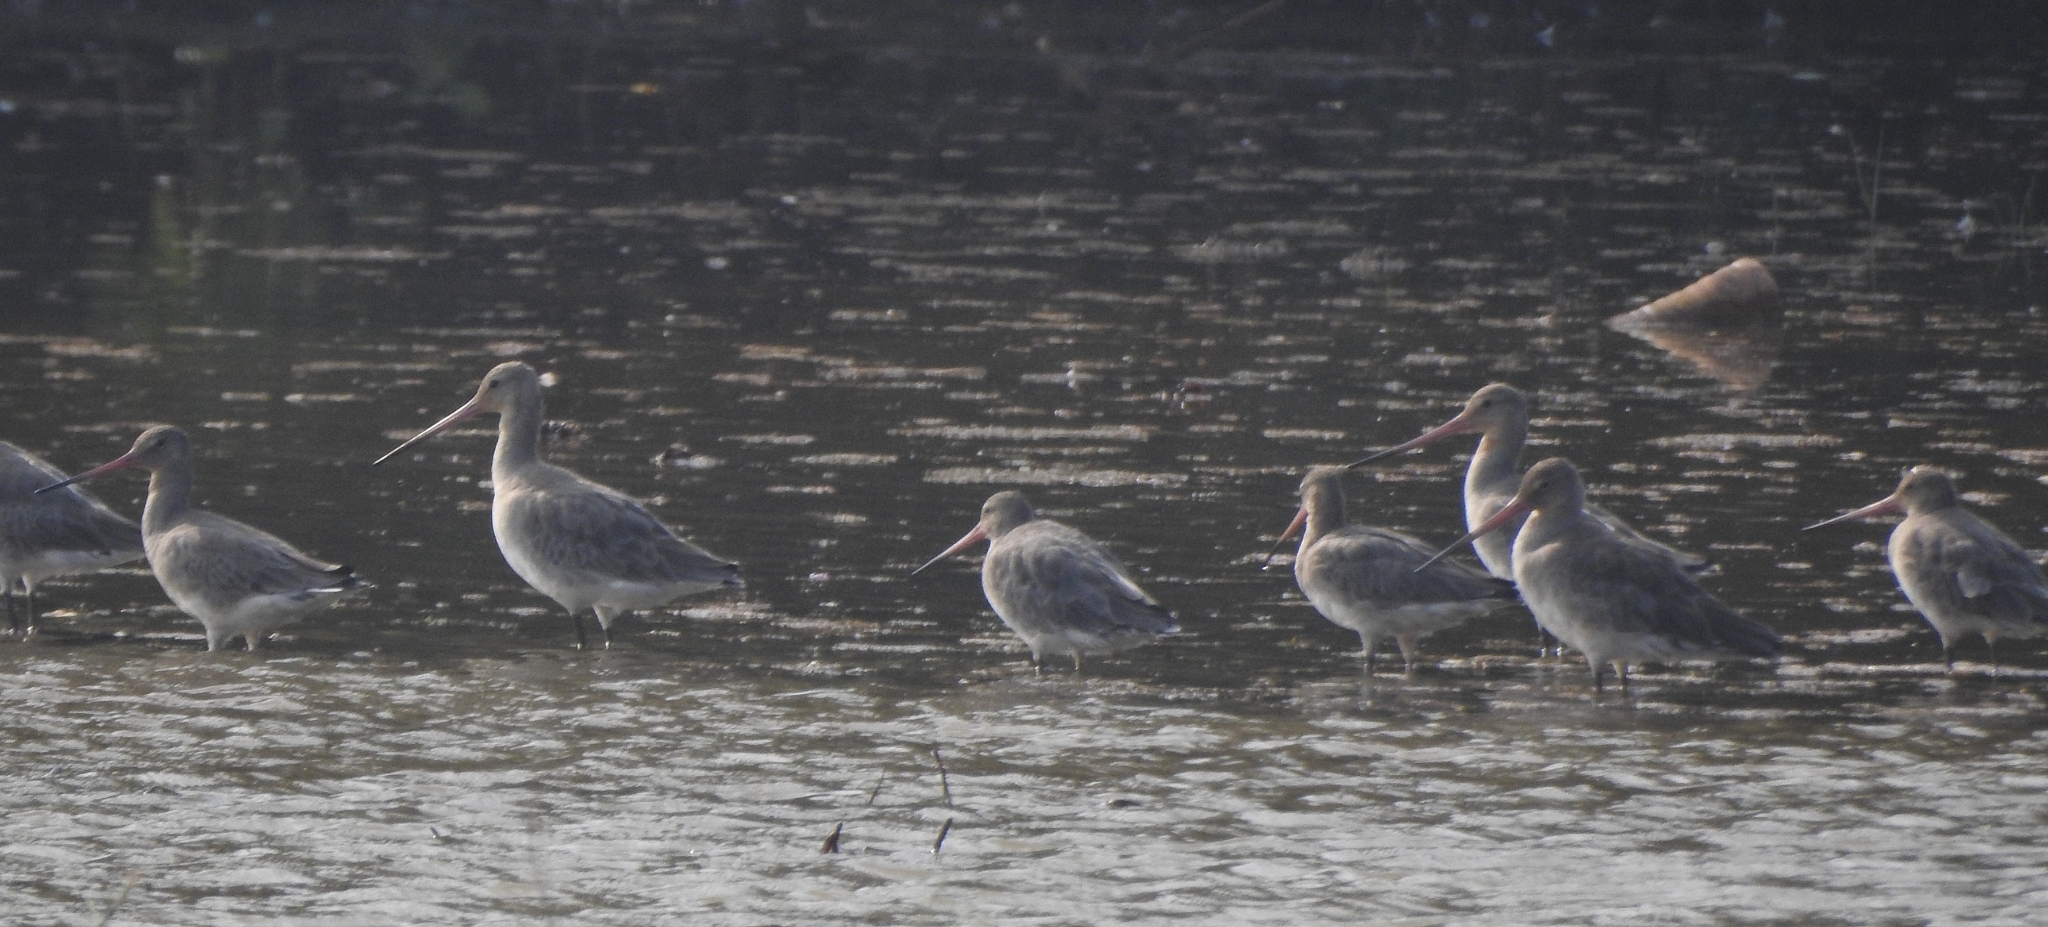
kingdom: Animalia
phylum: Chordata
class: Aves
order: Charadriiformes
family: Scolopacidae
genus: Limosa
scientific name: Limosa limosa
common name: Black-tailed godwit
